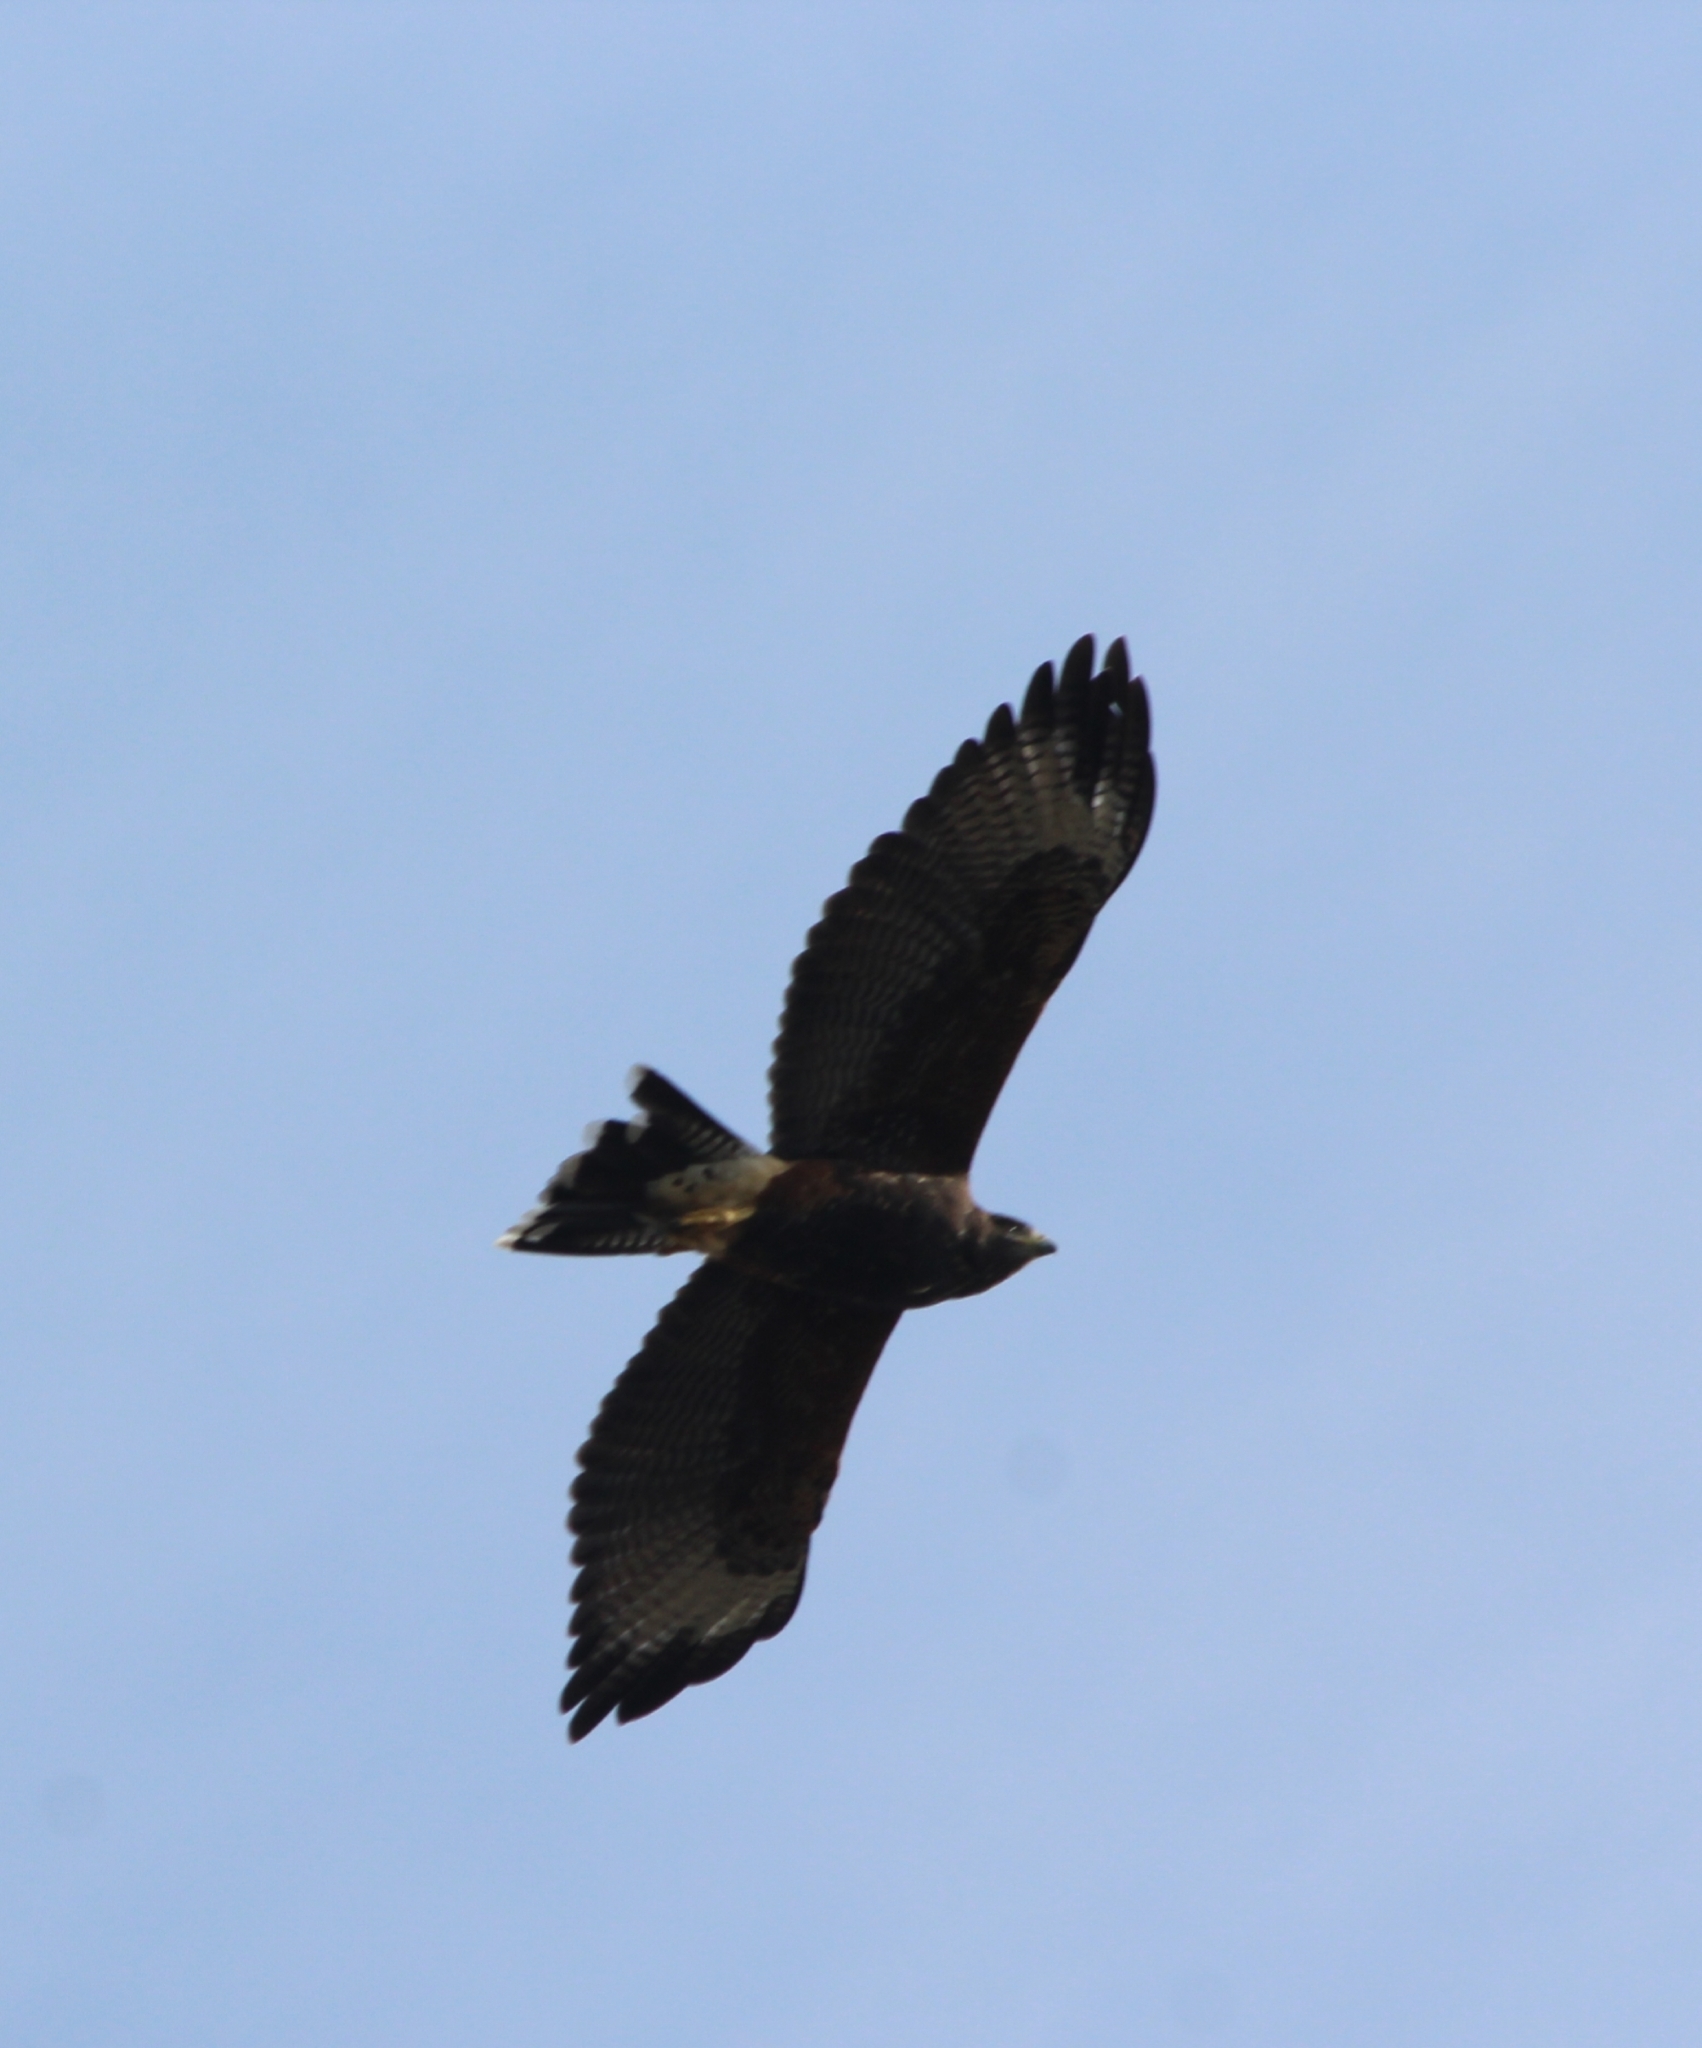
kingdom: Animalia
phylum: Chordata
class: Aves
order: Accipitriformes
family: Accipitridae
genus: Parabuteo
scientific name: Parabuteo unicinctus
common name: Harris's hawk
